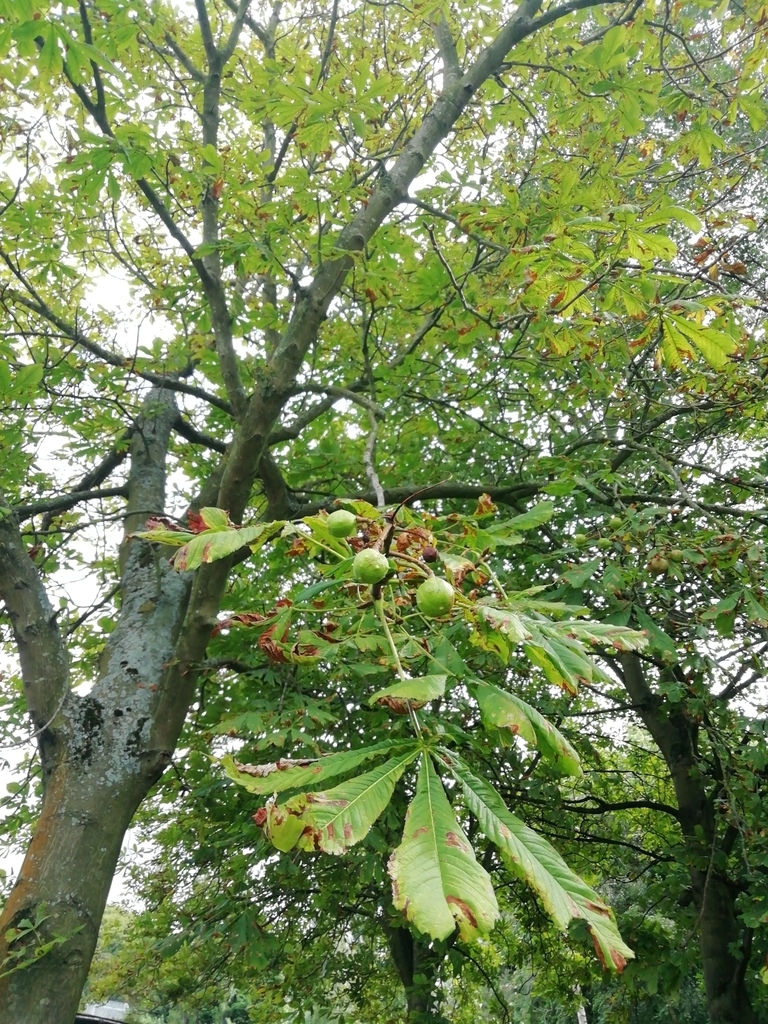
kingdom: Plantae
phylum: Tracheophyta
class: Magnoliopsida
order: Sapindales
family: Sapindaceae
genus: Aesculus
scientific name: Aesculus hippocastanum
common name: Horse-chestnut
